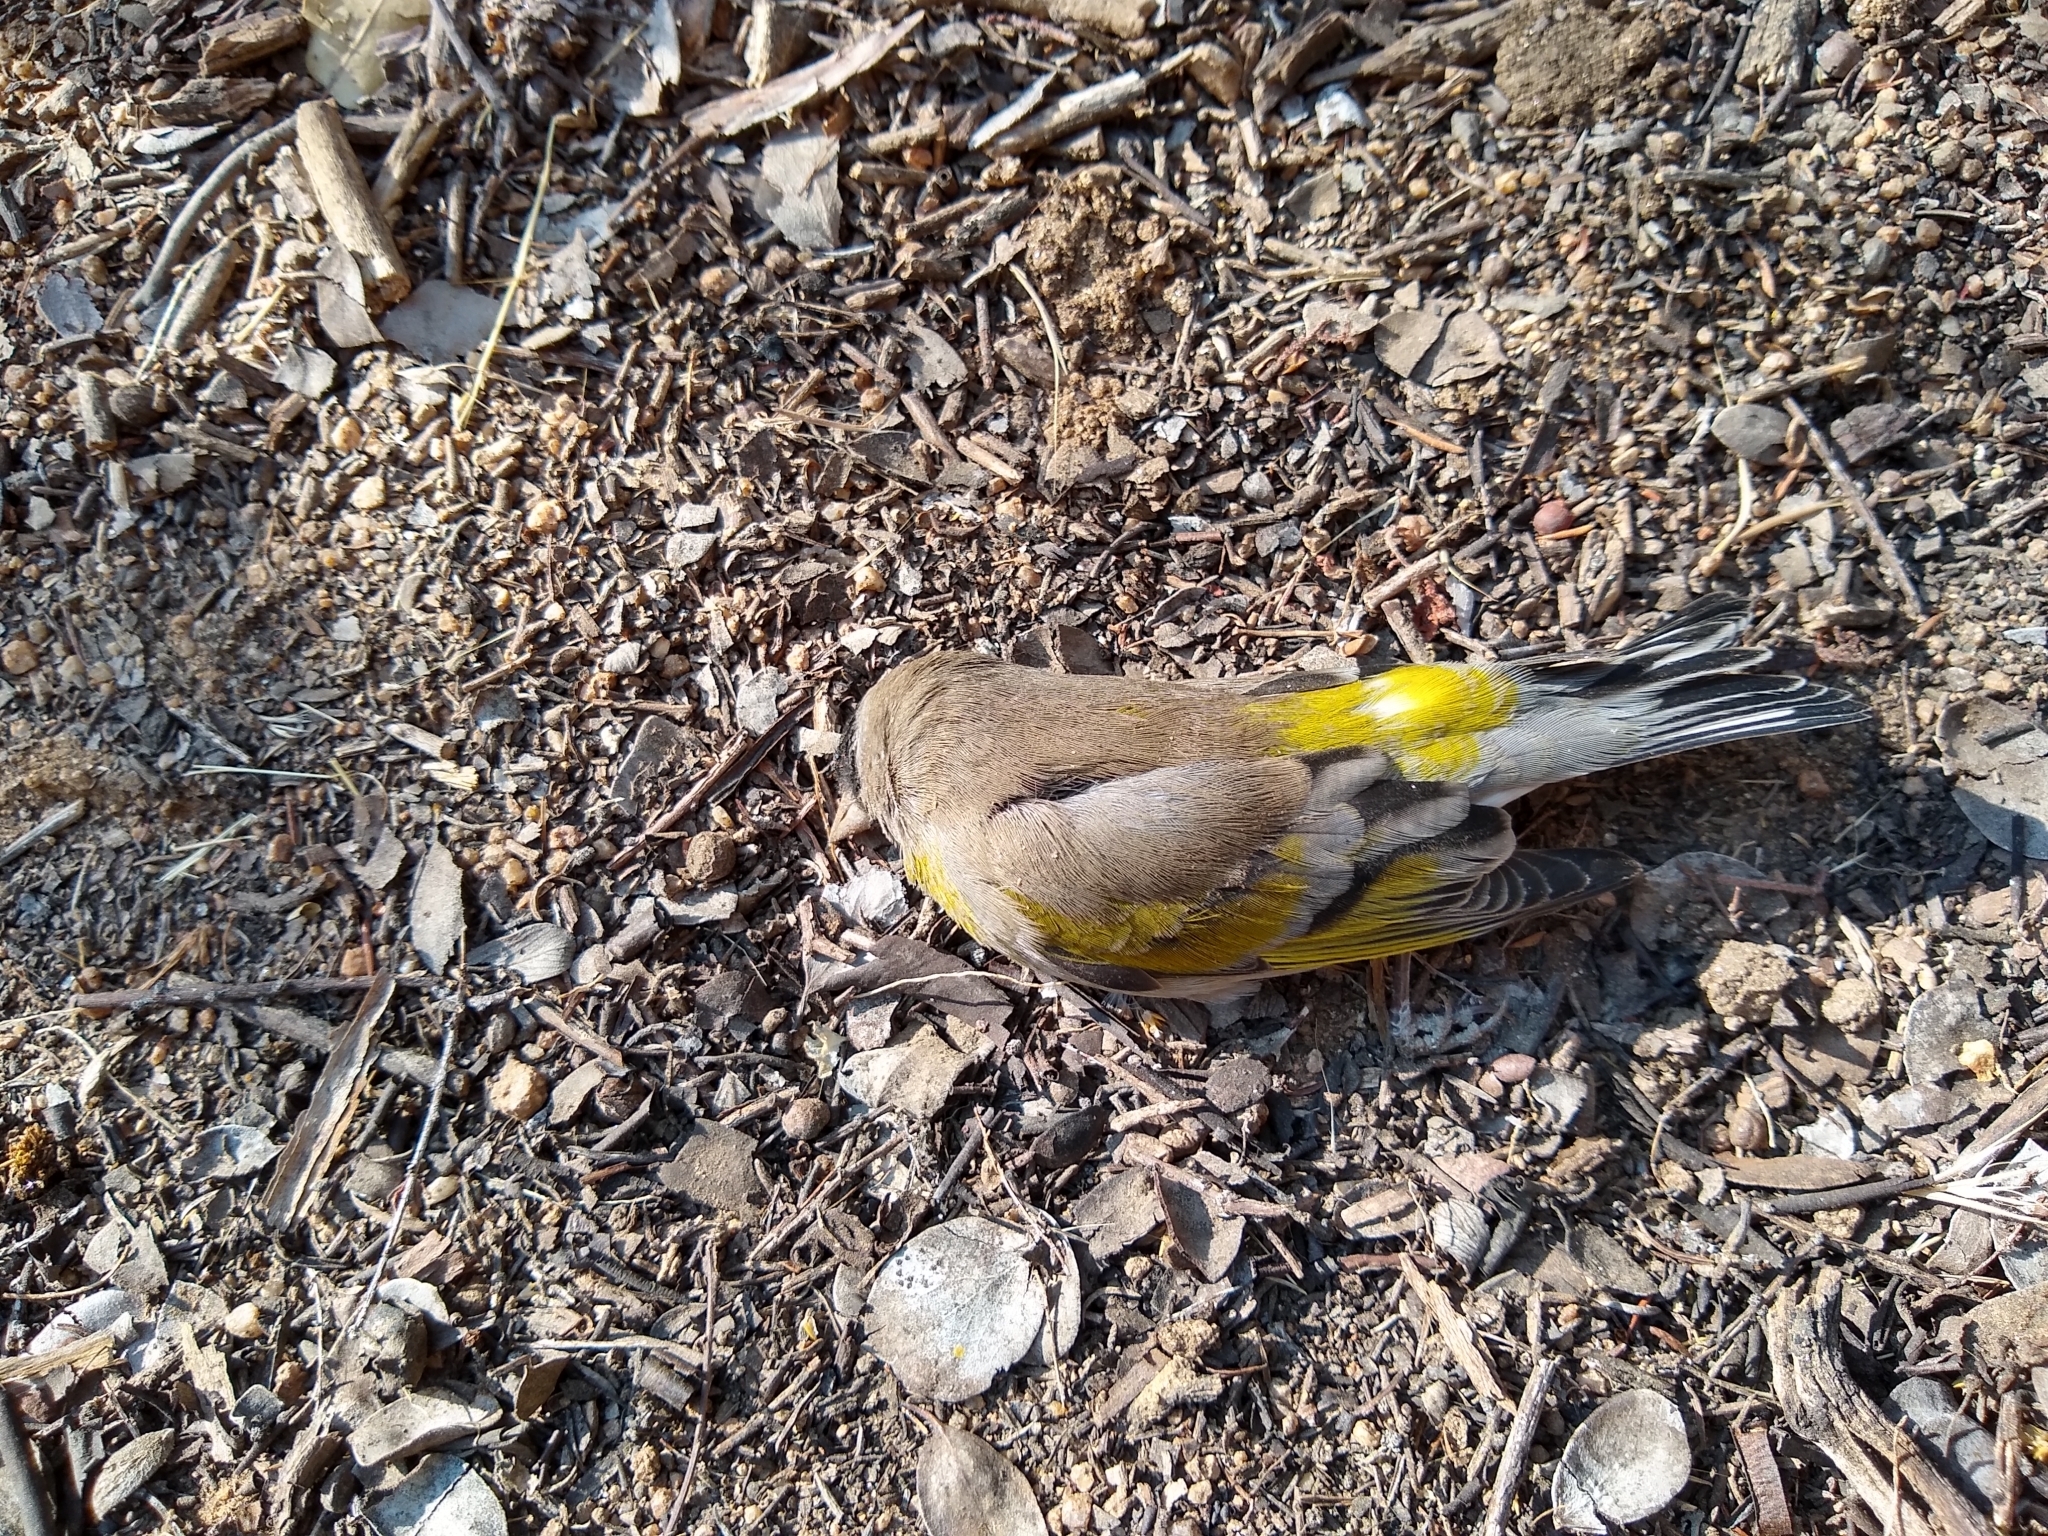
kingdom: Animalia
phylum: Chordata
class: Aves
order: Passeriformes
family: Fringillidae
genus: Spinus
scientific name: Spinus lawrencei
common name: Lawrence's goldfinch
